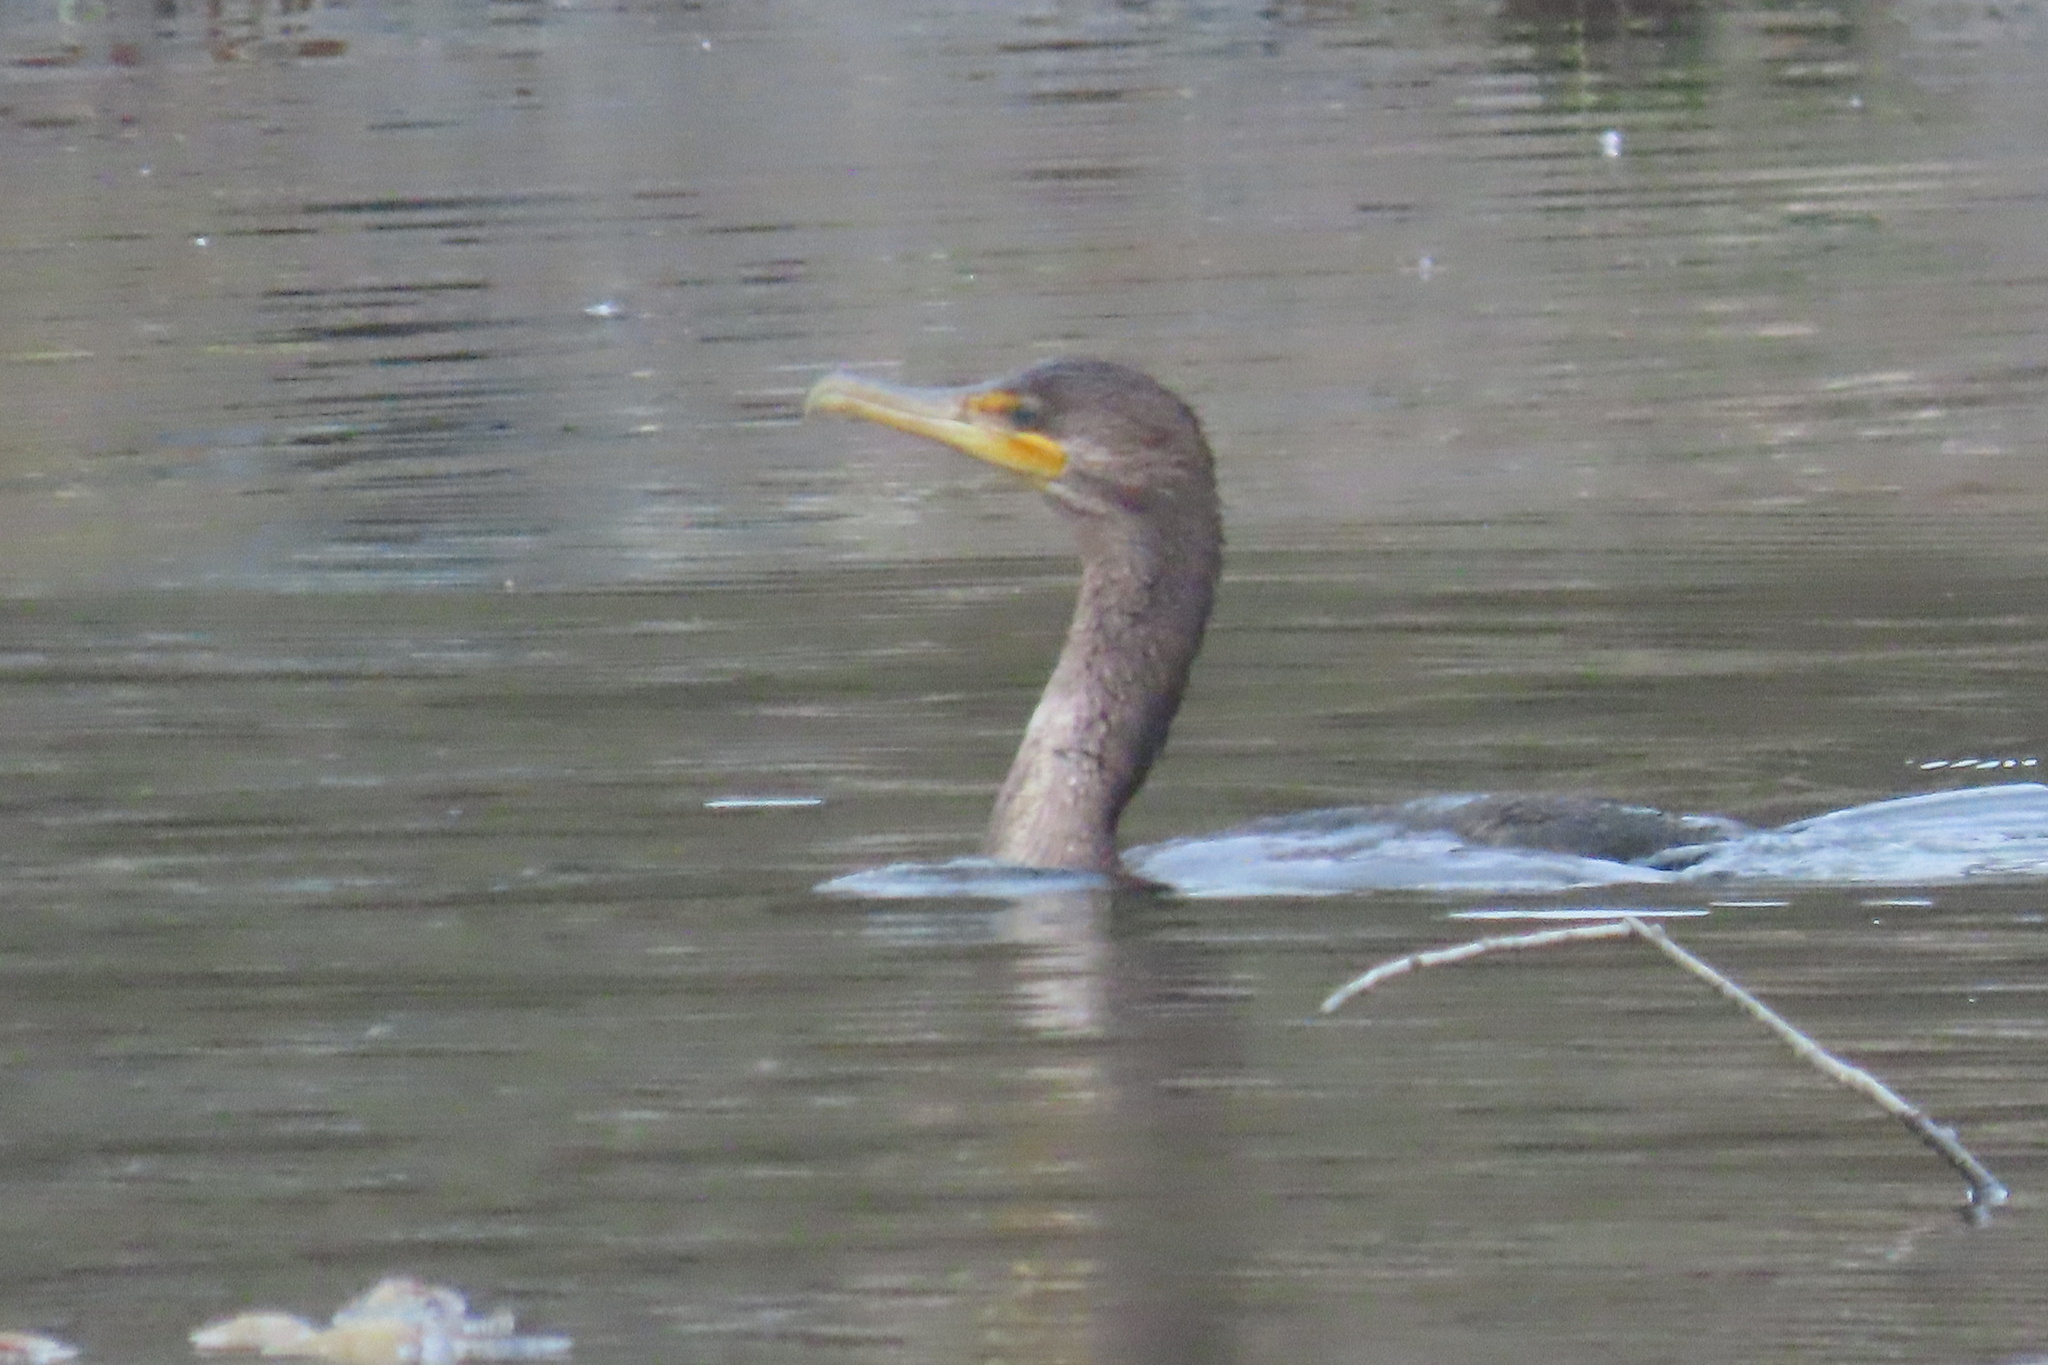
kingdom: Animalia
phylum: Chordata
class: Aves
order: Suliformes
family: Phalacrocoracidae
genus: Phalacrocorax
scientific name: Phalacrocorax auritus
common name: Double-crested cormorant
